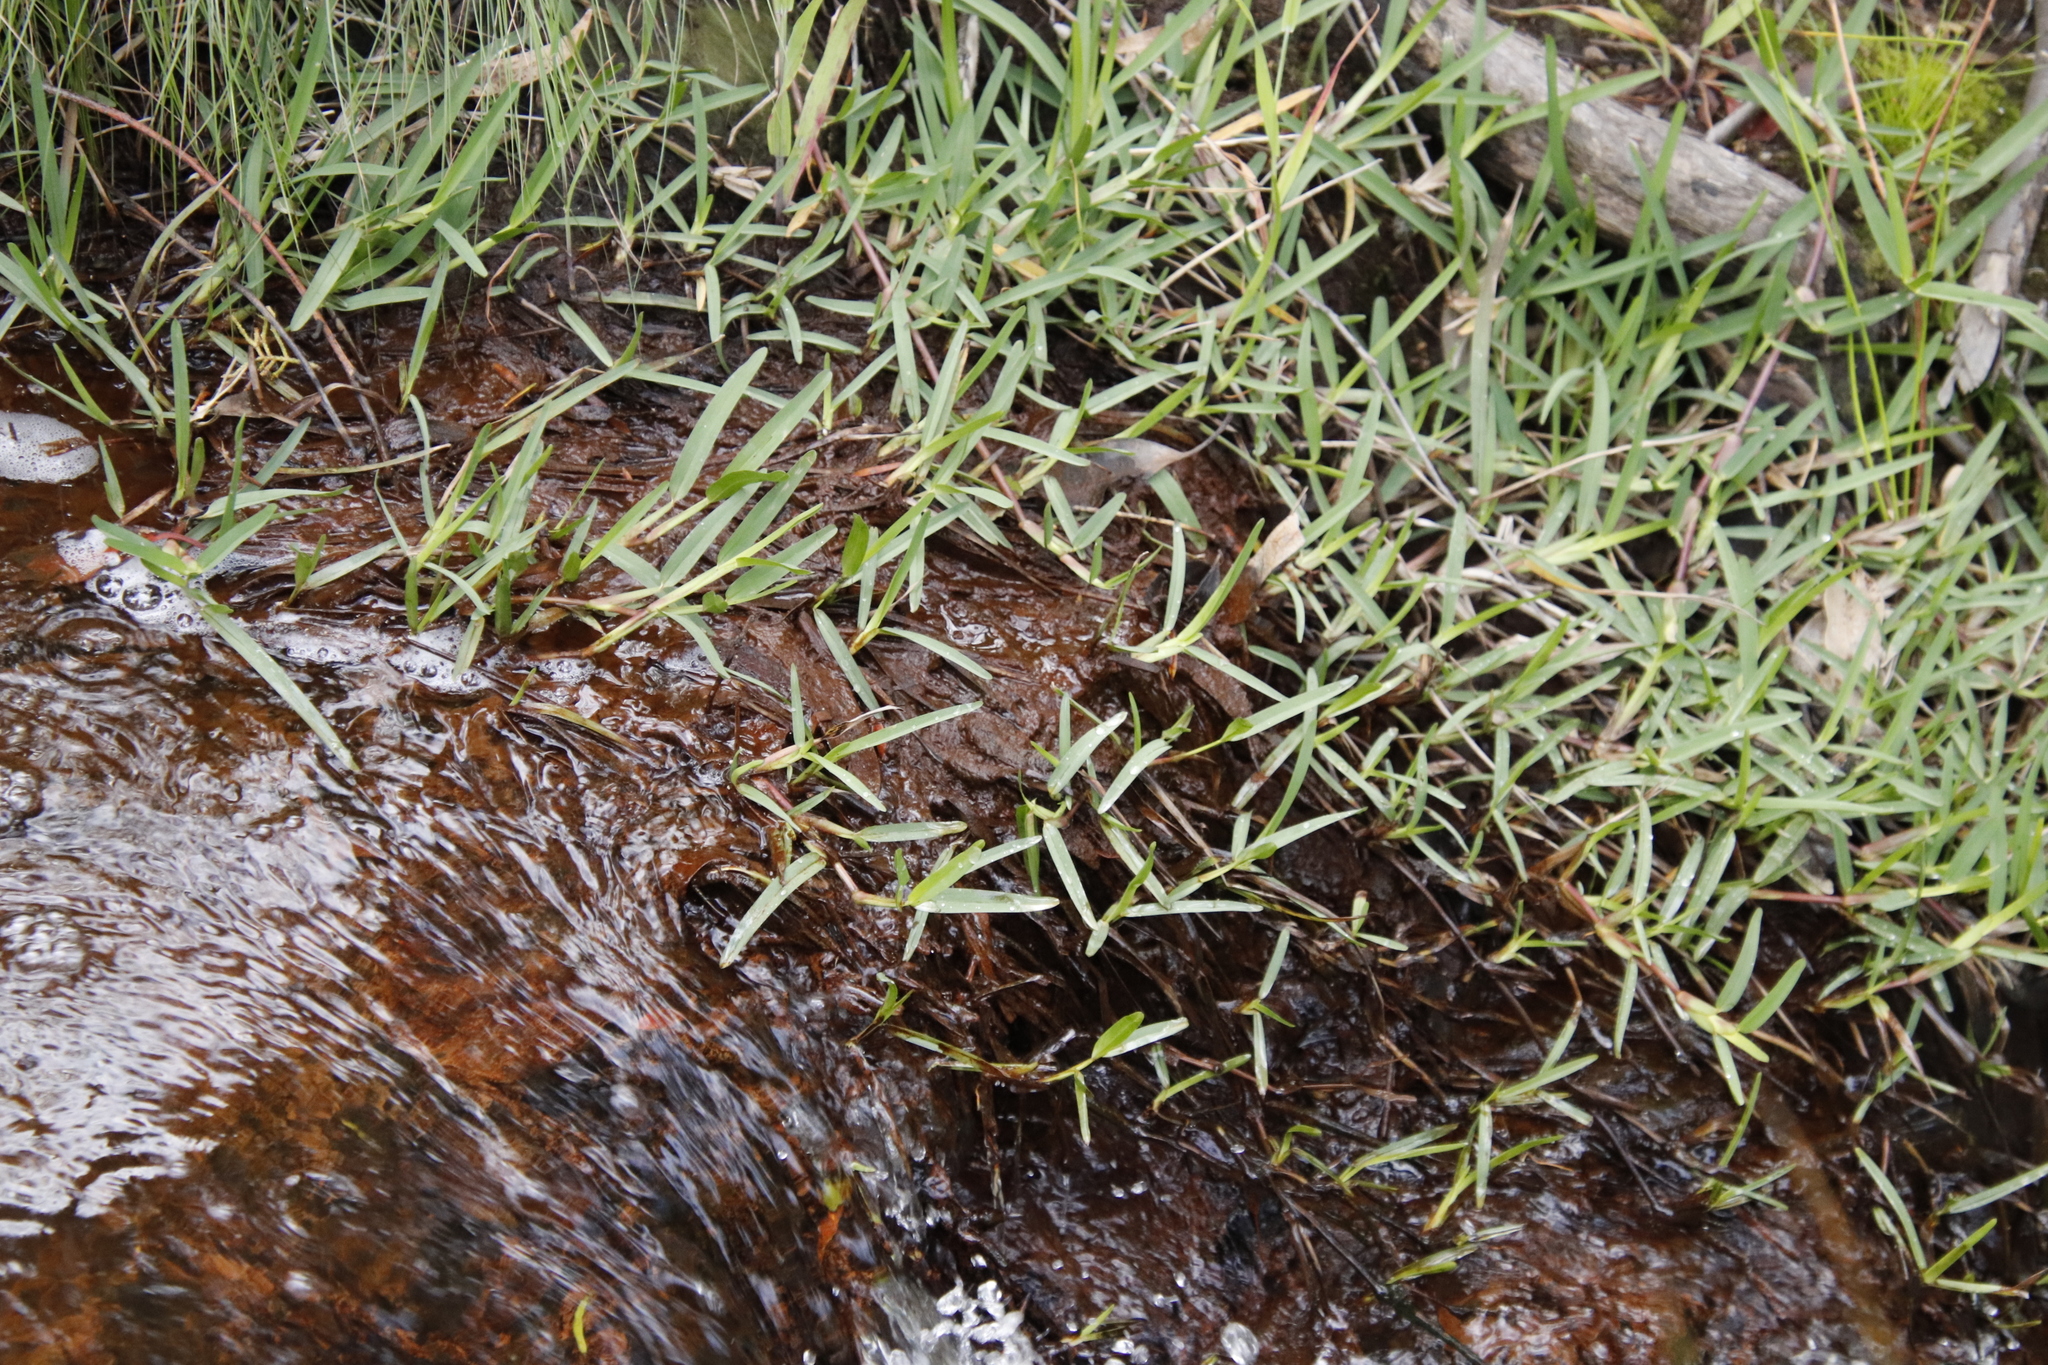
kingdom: Plantae
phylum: Tracheophyta
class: Liliopsida
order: Poales
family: Poaceae
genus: Stenotaphrum
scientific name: Stenotaphrum secundatum
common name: St. augustine grass
